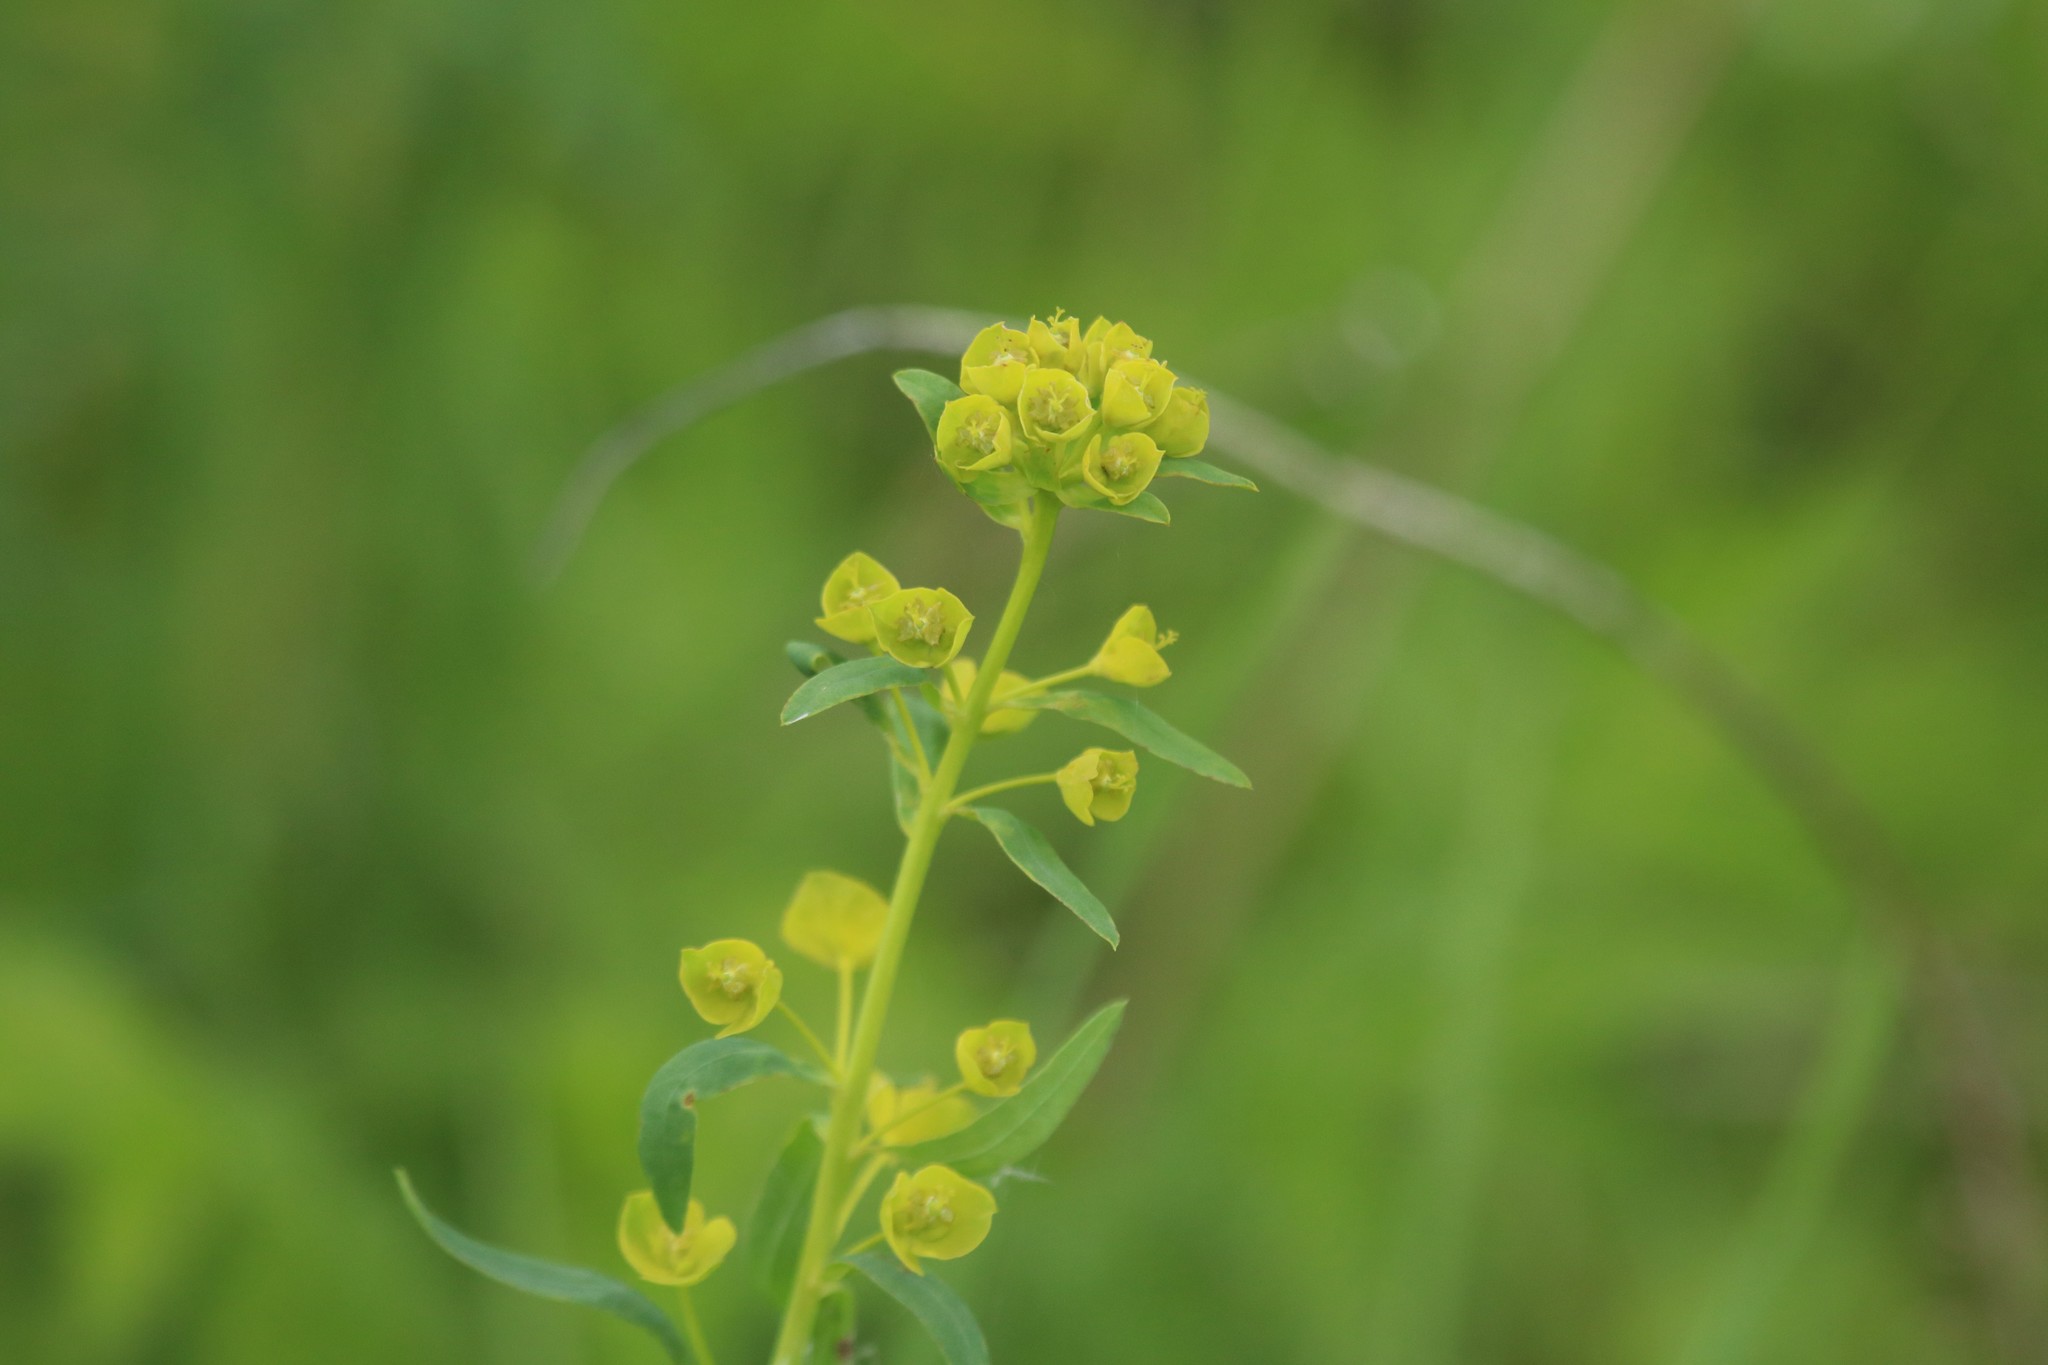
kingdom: Plantae
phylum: Tracheophyta
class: Magnoliopsida
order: Malpighiales
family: Euphorbiaceae
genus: Euphorbia
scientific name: Euphorbia virgata
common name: Leafy spurge
